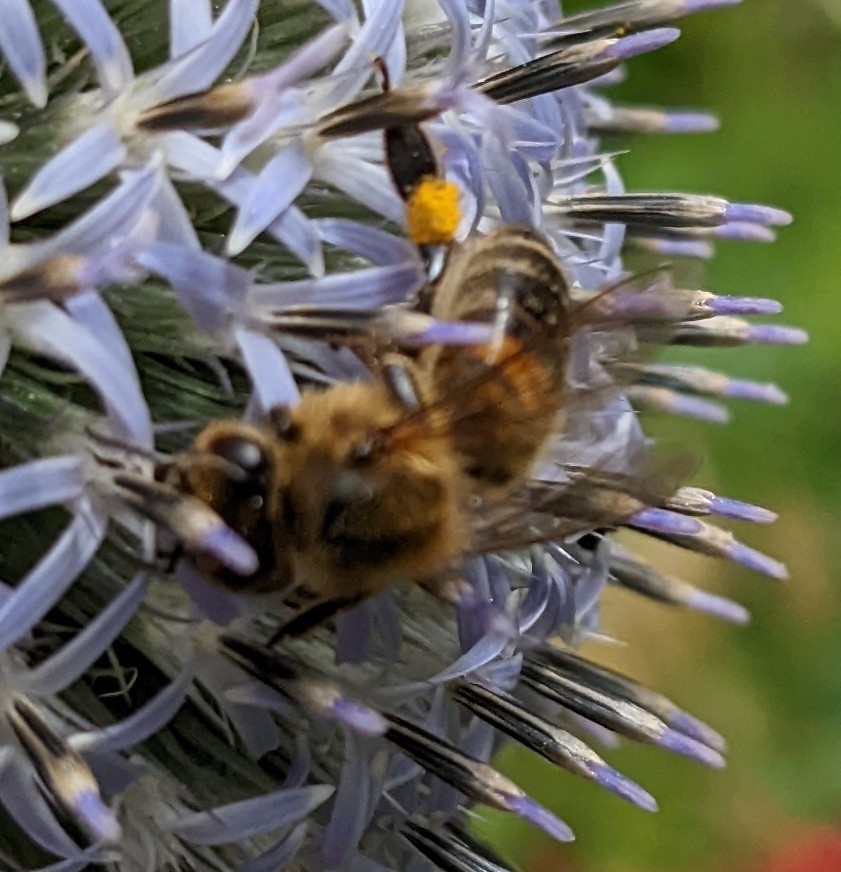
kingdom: Animalia
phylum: Arthropoda
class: Insecta
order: Hymenoptera
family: Apidae
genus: Apis
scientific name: Apis mellifera
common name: Honey bee
